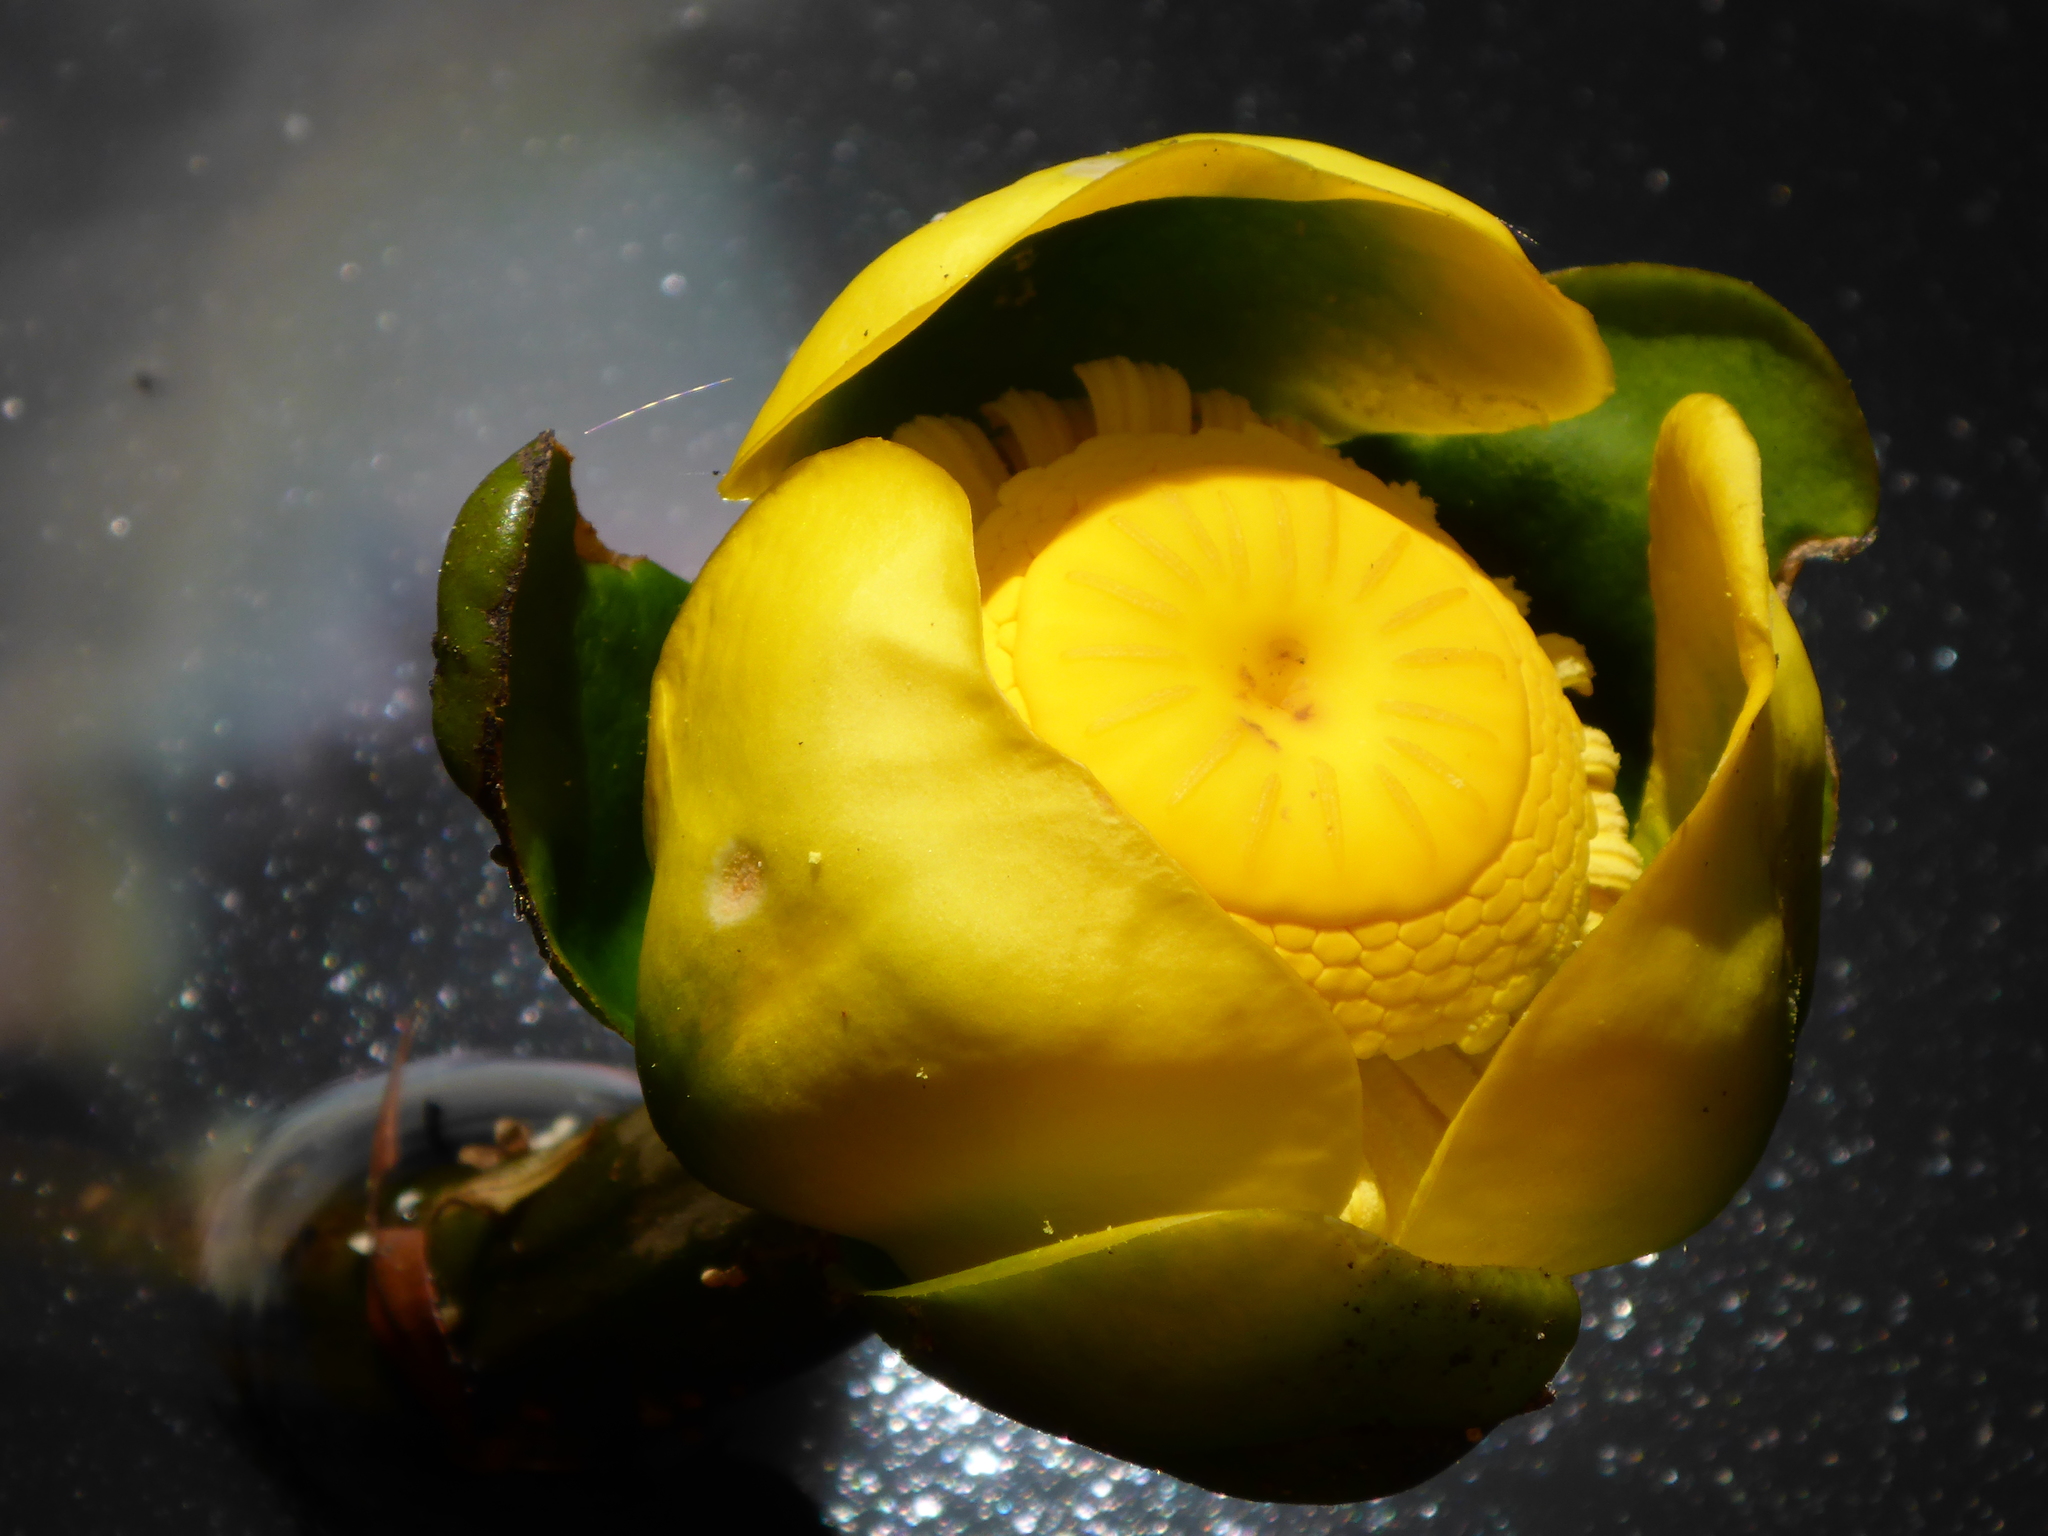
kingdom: Plantae
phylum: Tracheophyta
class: Magnoliopsida
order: Nymphaeales
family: Nymphaeaceae
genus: Nuphar
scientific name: Nuphar advena
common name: Spatter-dock
